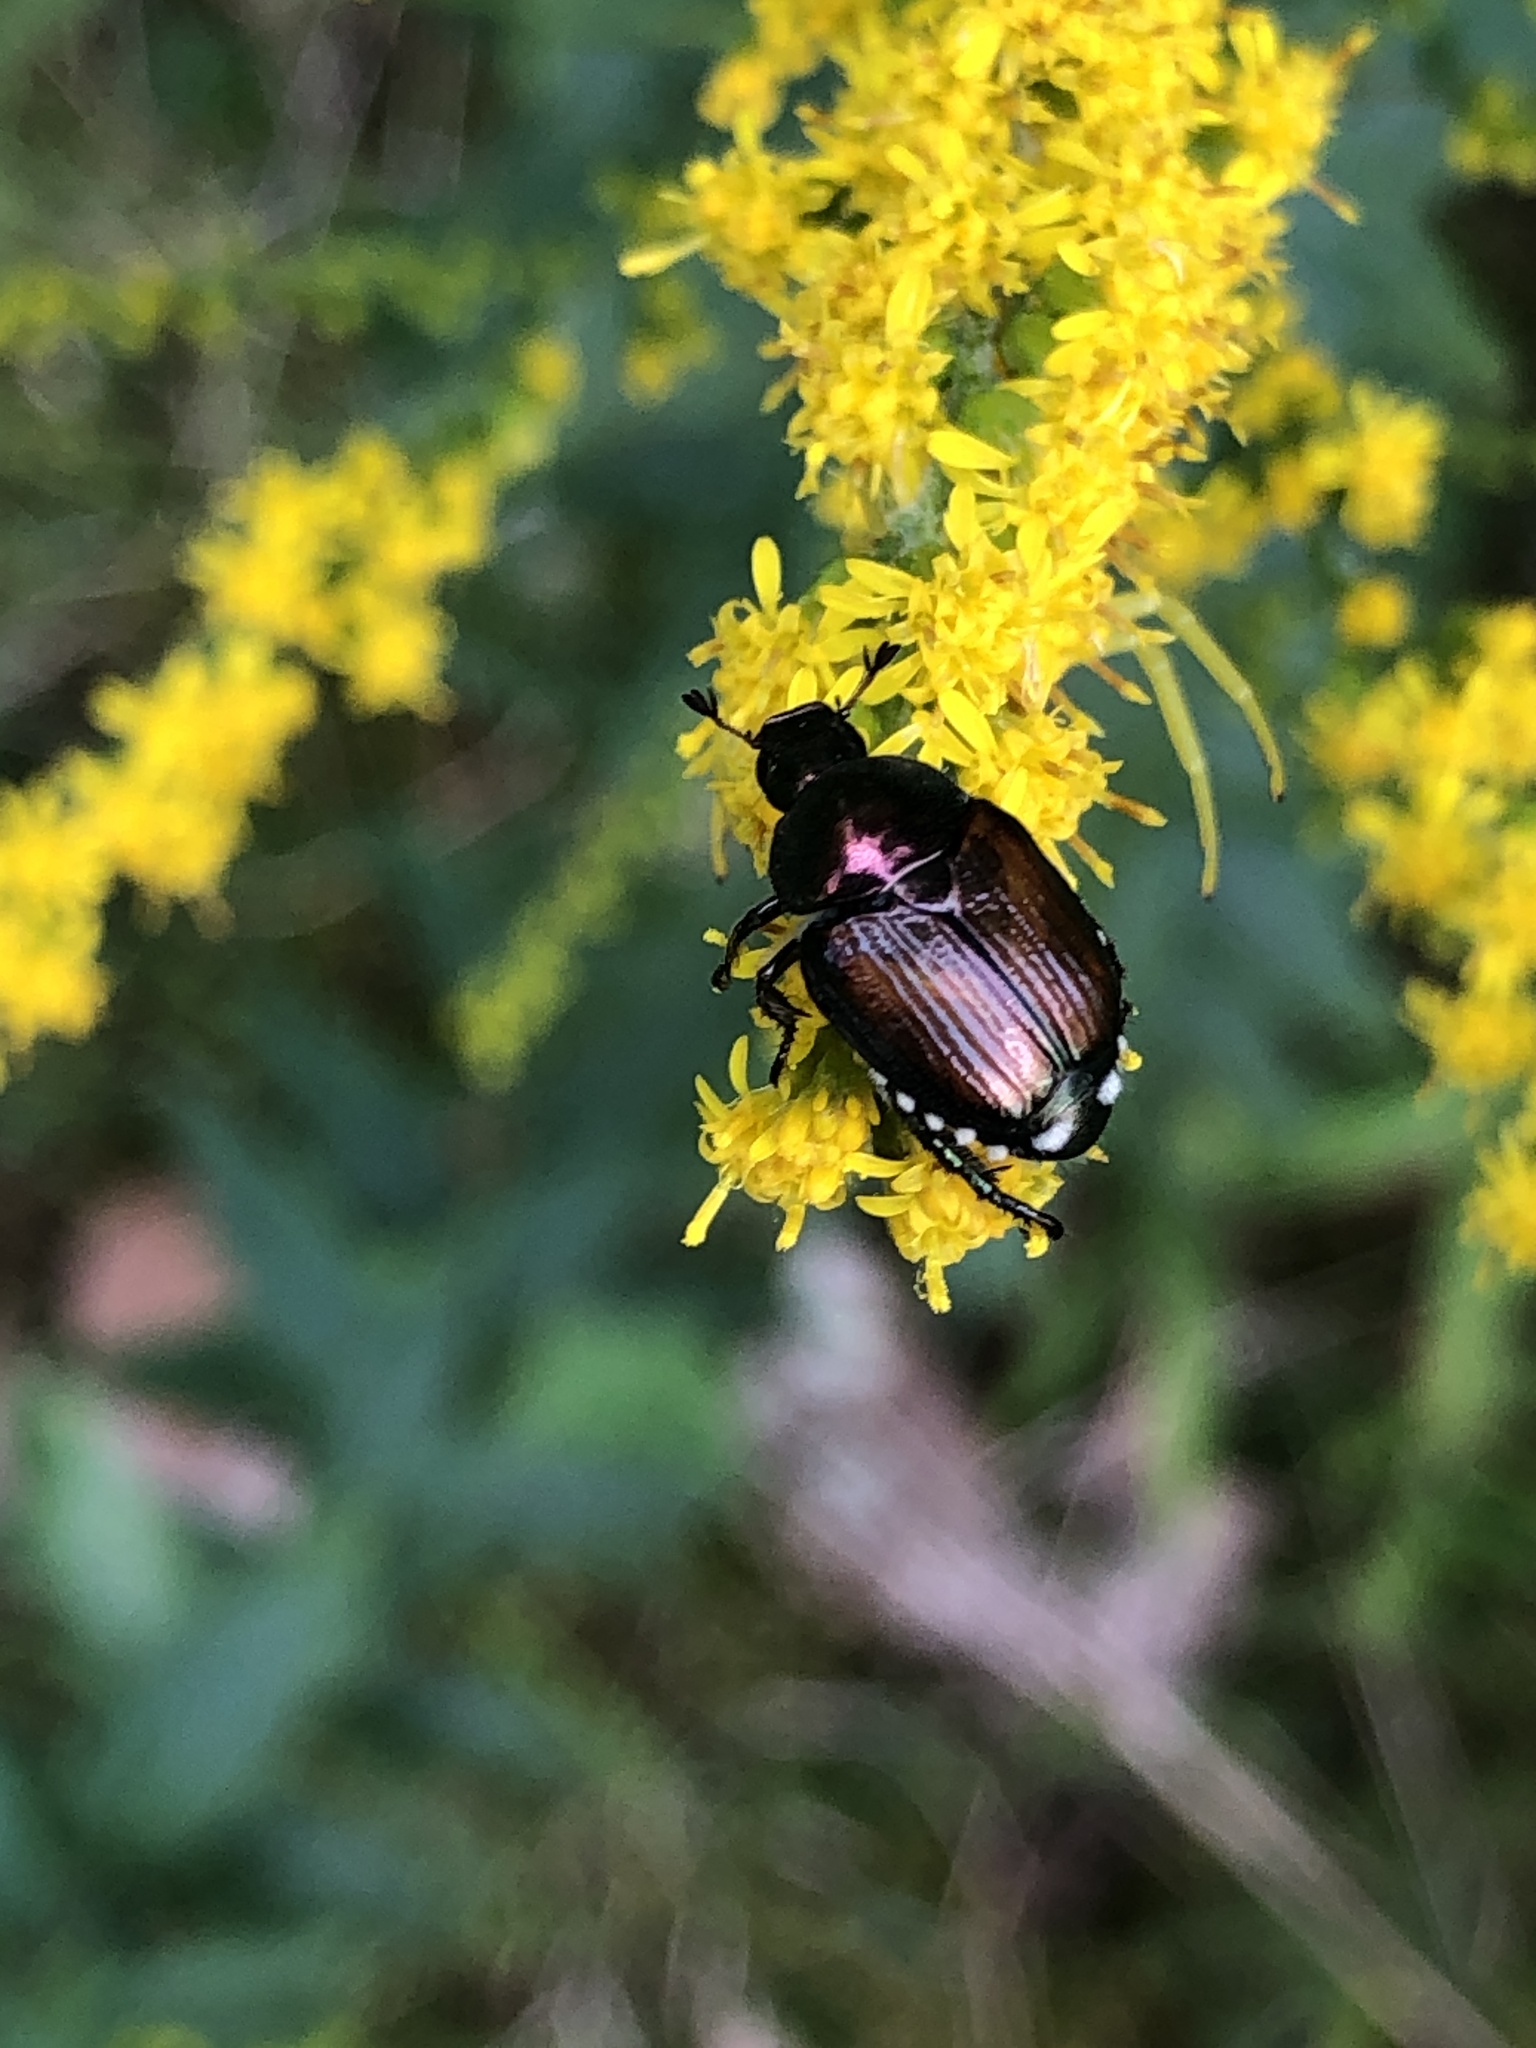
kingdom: Animalia
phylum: Arthropoda
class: Insecta
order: Coleoptera
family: Scarabaeidae
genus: Popillia
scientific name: Popillia japonica
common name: Japanese beetle
